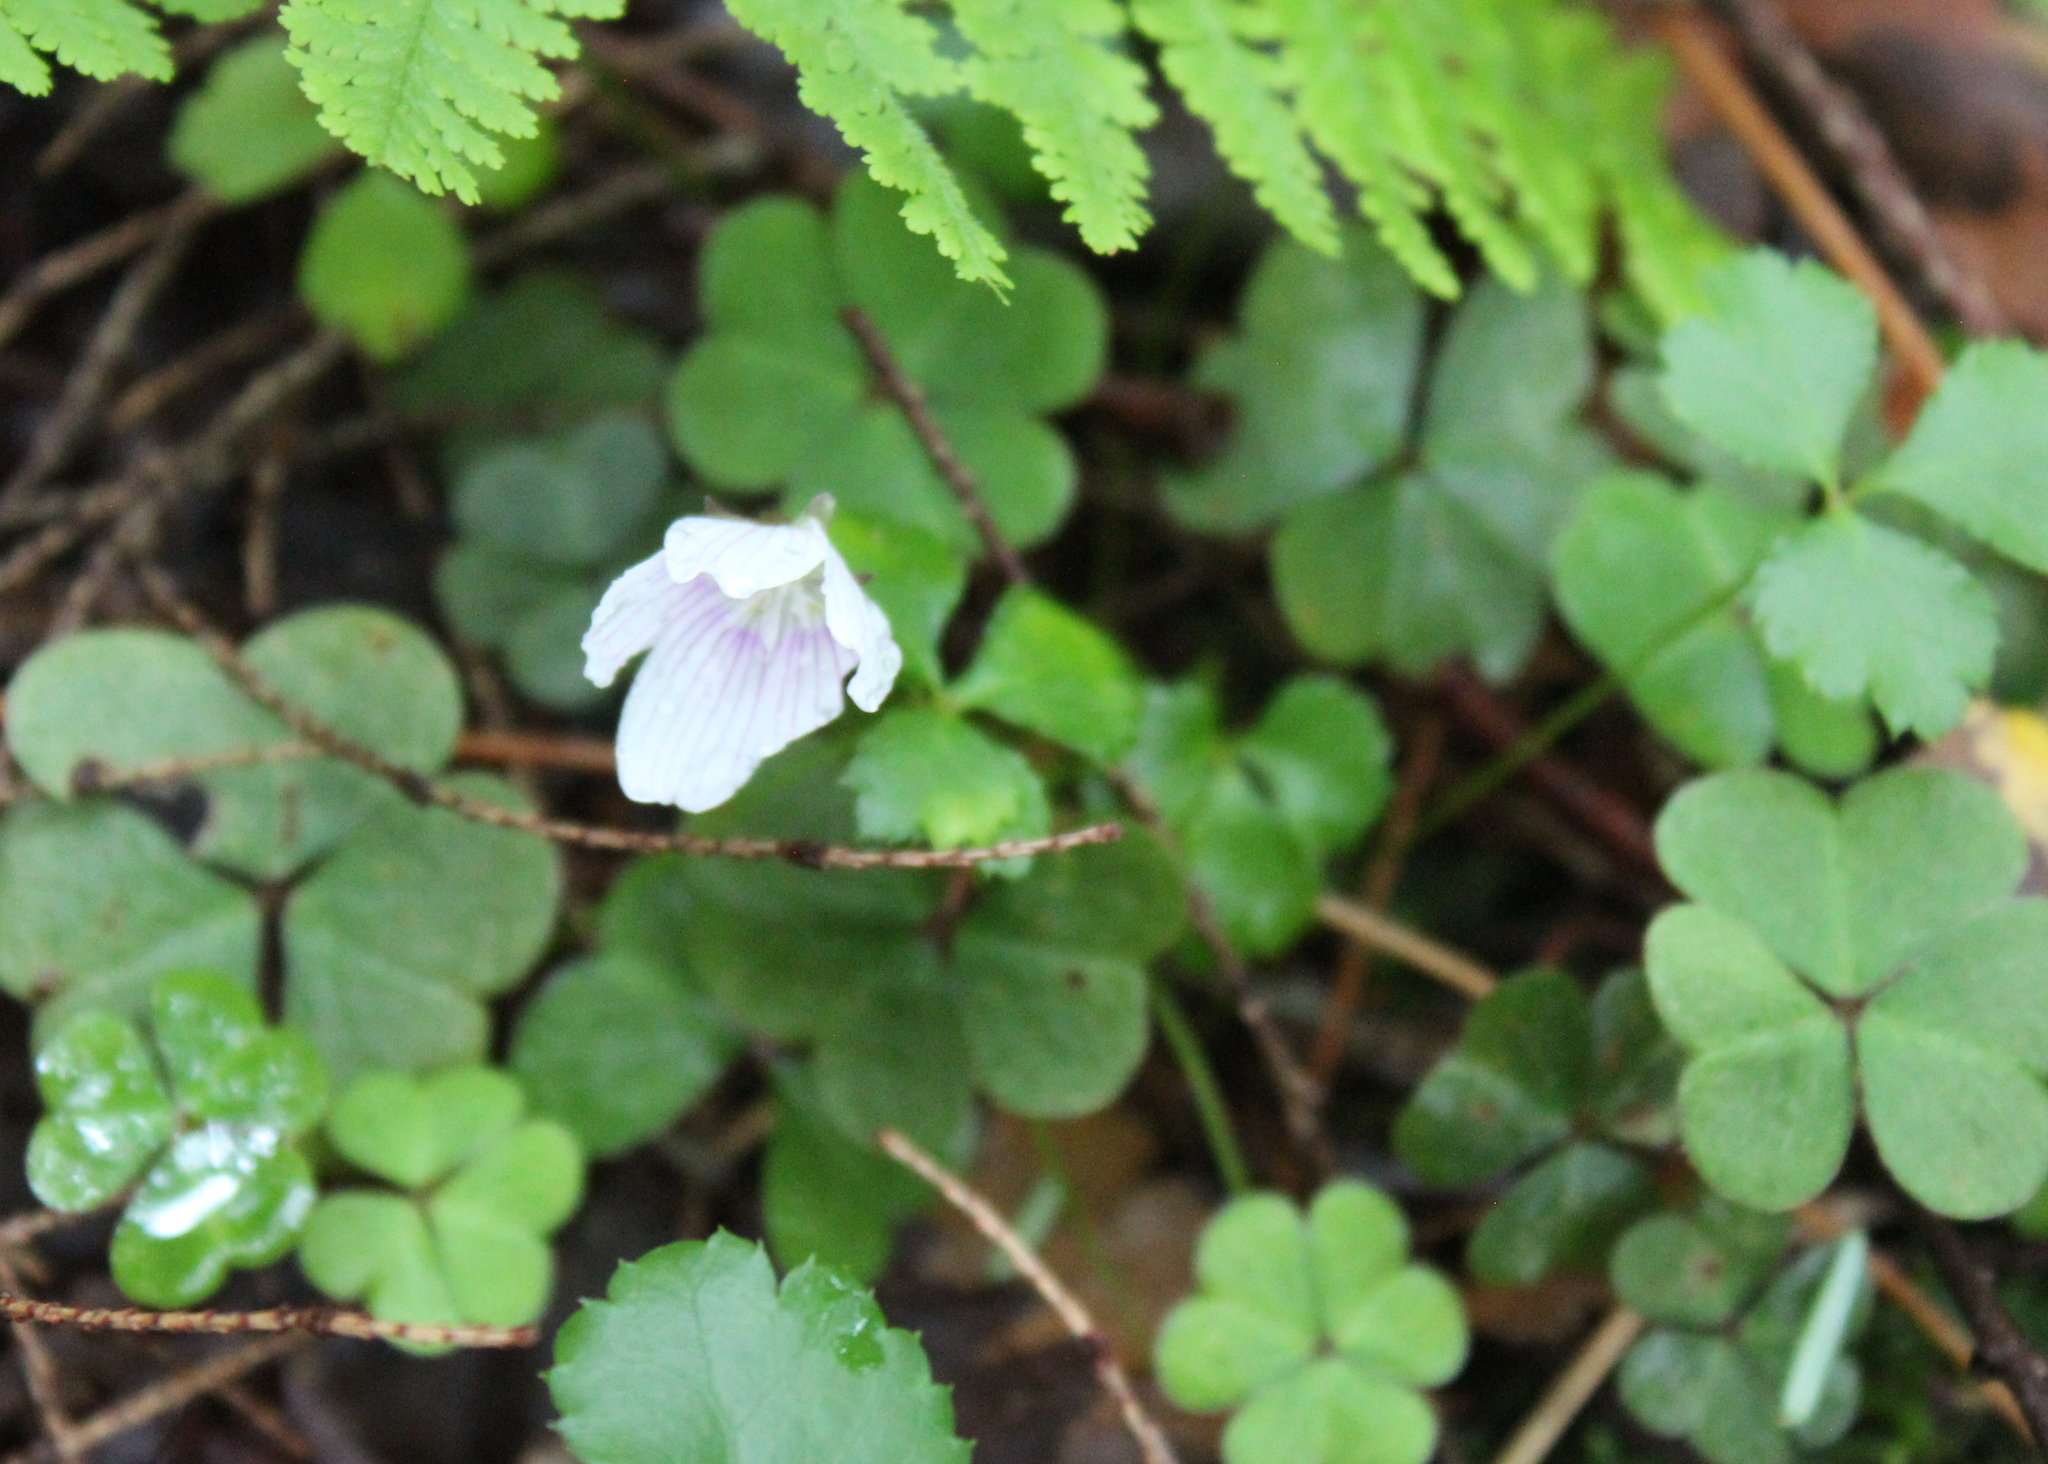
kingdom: Plantae
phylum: Tracheophyta
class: Magnoliopsida
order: Oxalidales
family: Oxalidaceae
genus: Oxalis
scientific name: Oxalis montana
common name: American wood-sorrel
